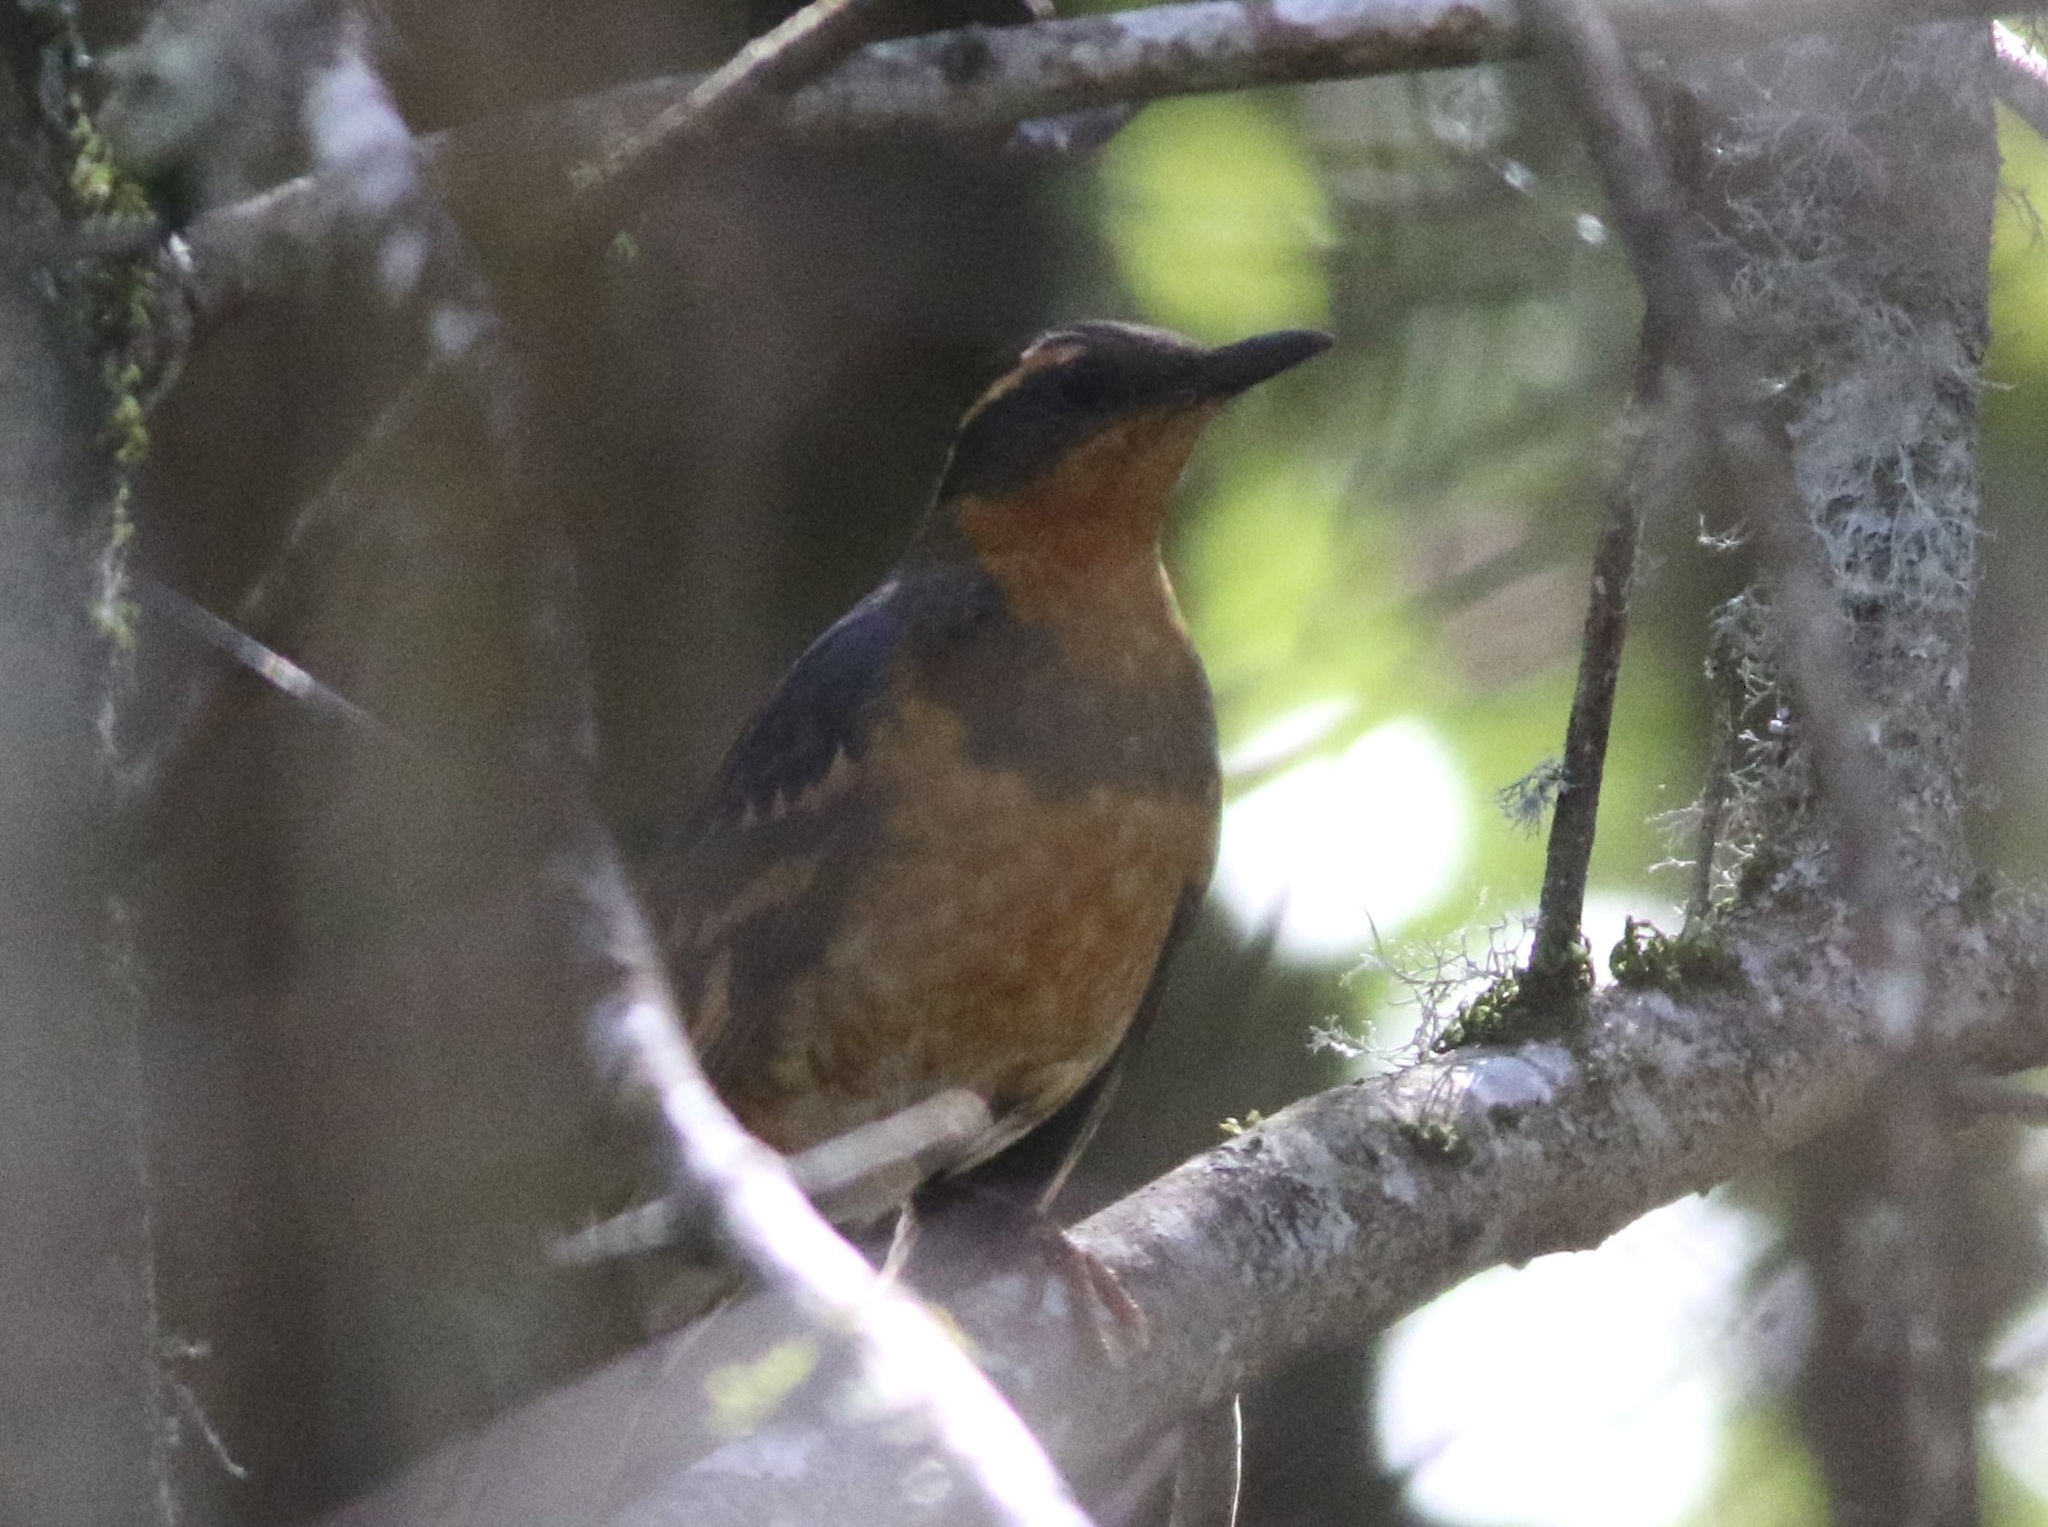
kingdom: Animalia
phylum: Chordata
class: Aves
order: Passeriformes
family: Turdidae
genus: Ixoreus
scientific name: Ixoreus naevius
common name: Varied thrush
